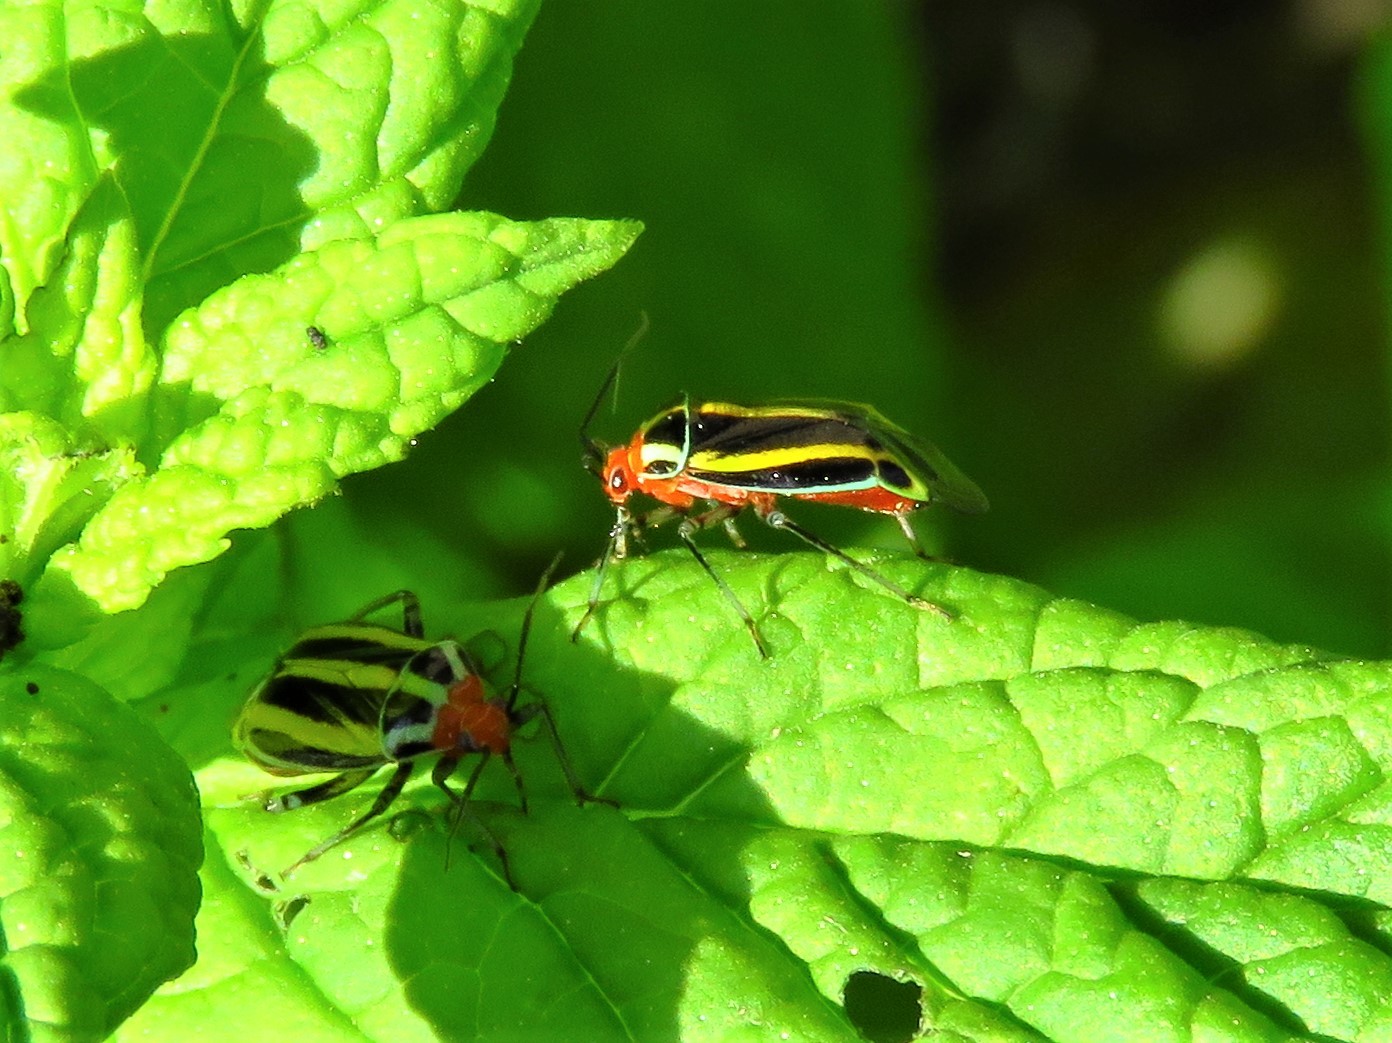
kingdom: Animalia
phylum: Arthropoda
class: Insecta
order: Hemiptera
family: Miridae
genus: Poecilocapsus
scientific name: Poecilocapsus lineatus
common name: Four-lined plant bug
